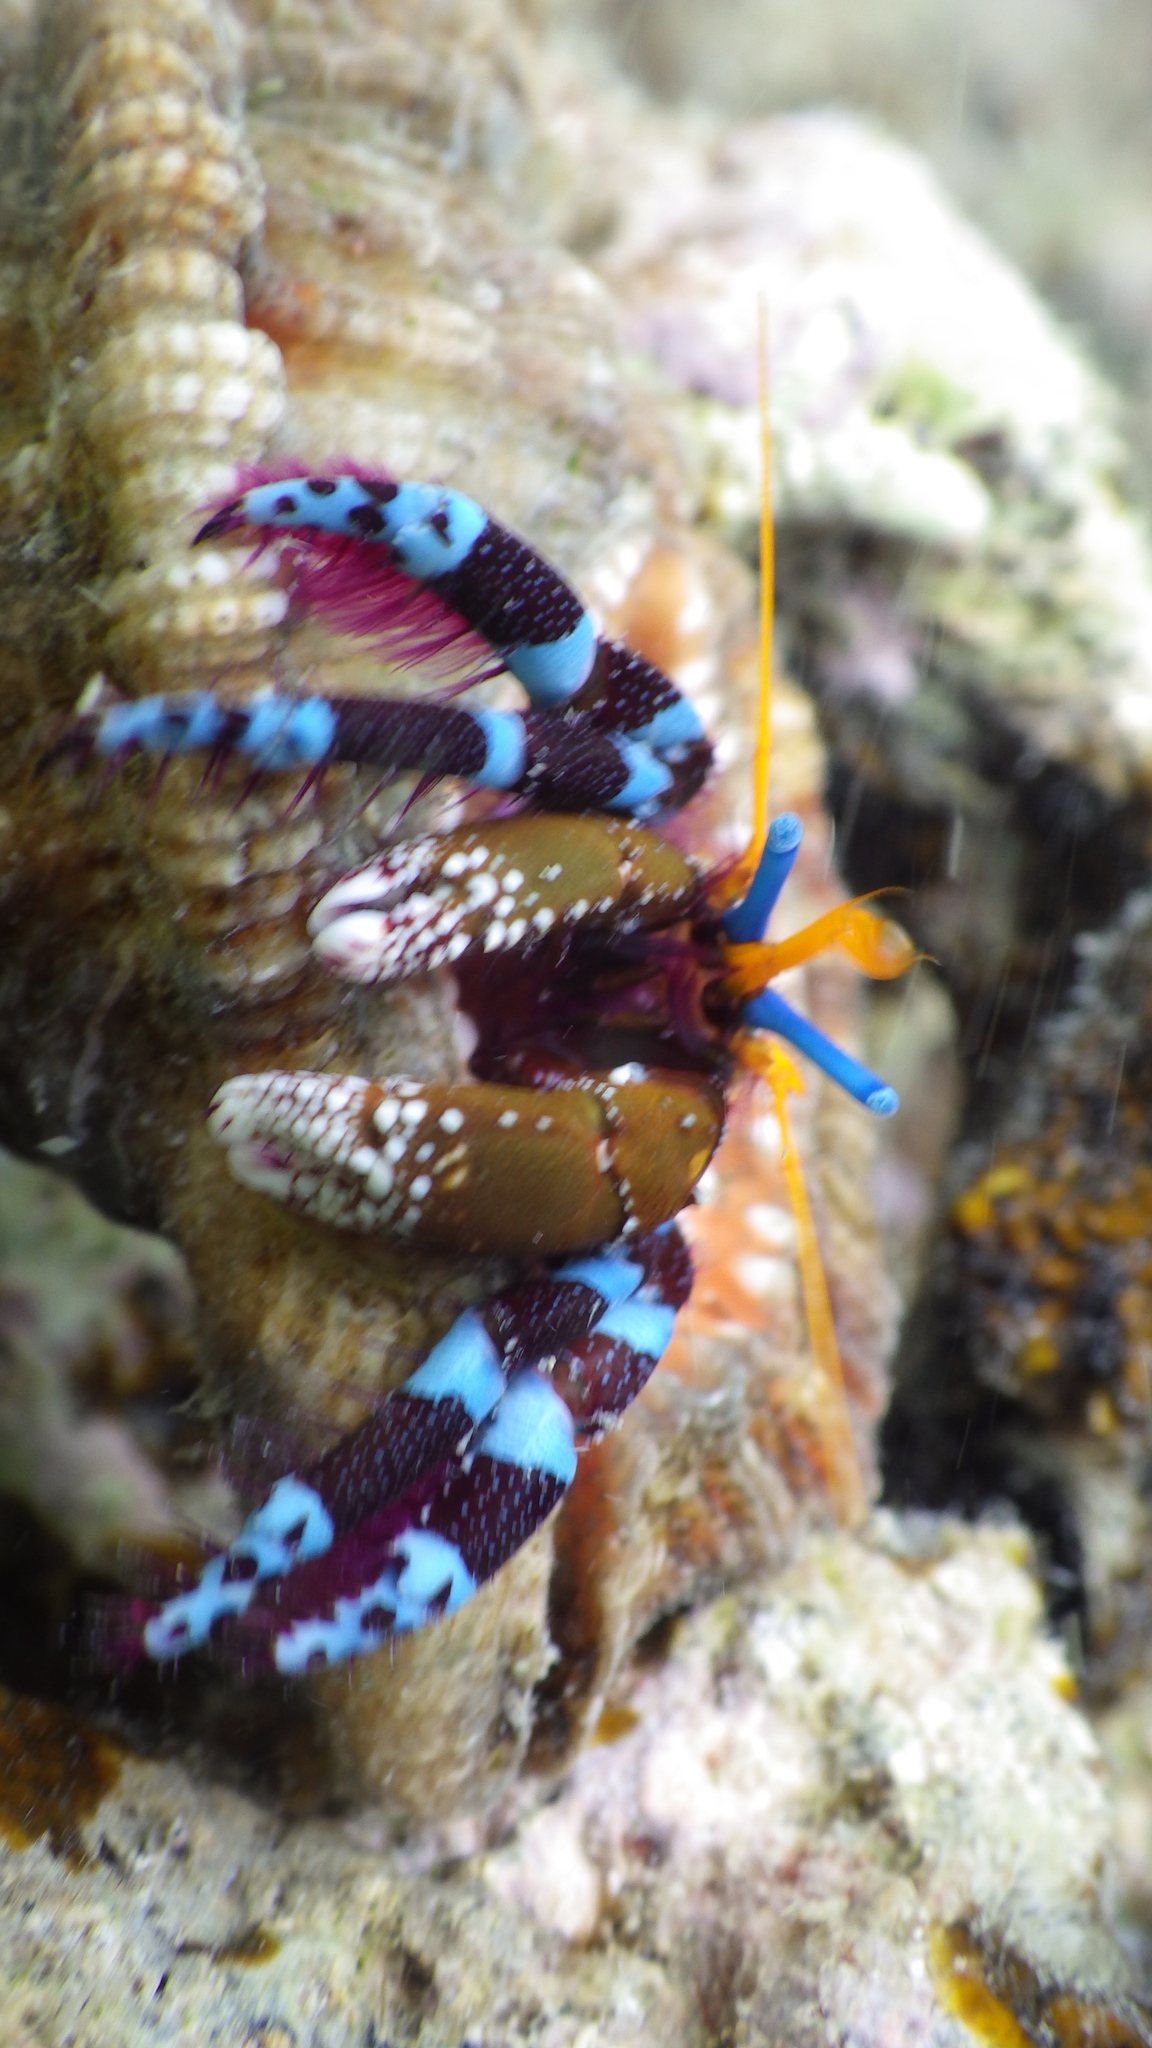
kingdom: Animalia
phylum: Arthropoda
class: Malacostraca
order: Decapoda
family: Diogenidae
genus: Calcinus
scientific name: Calcinus elegans
